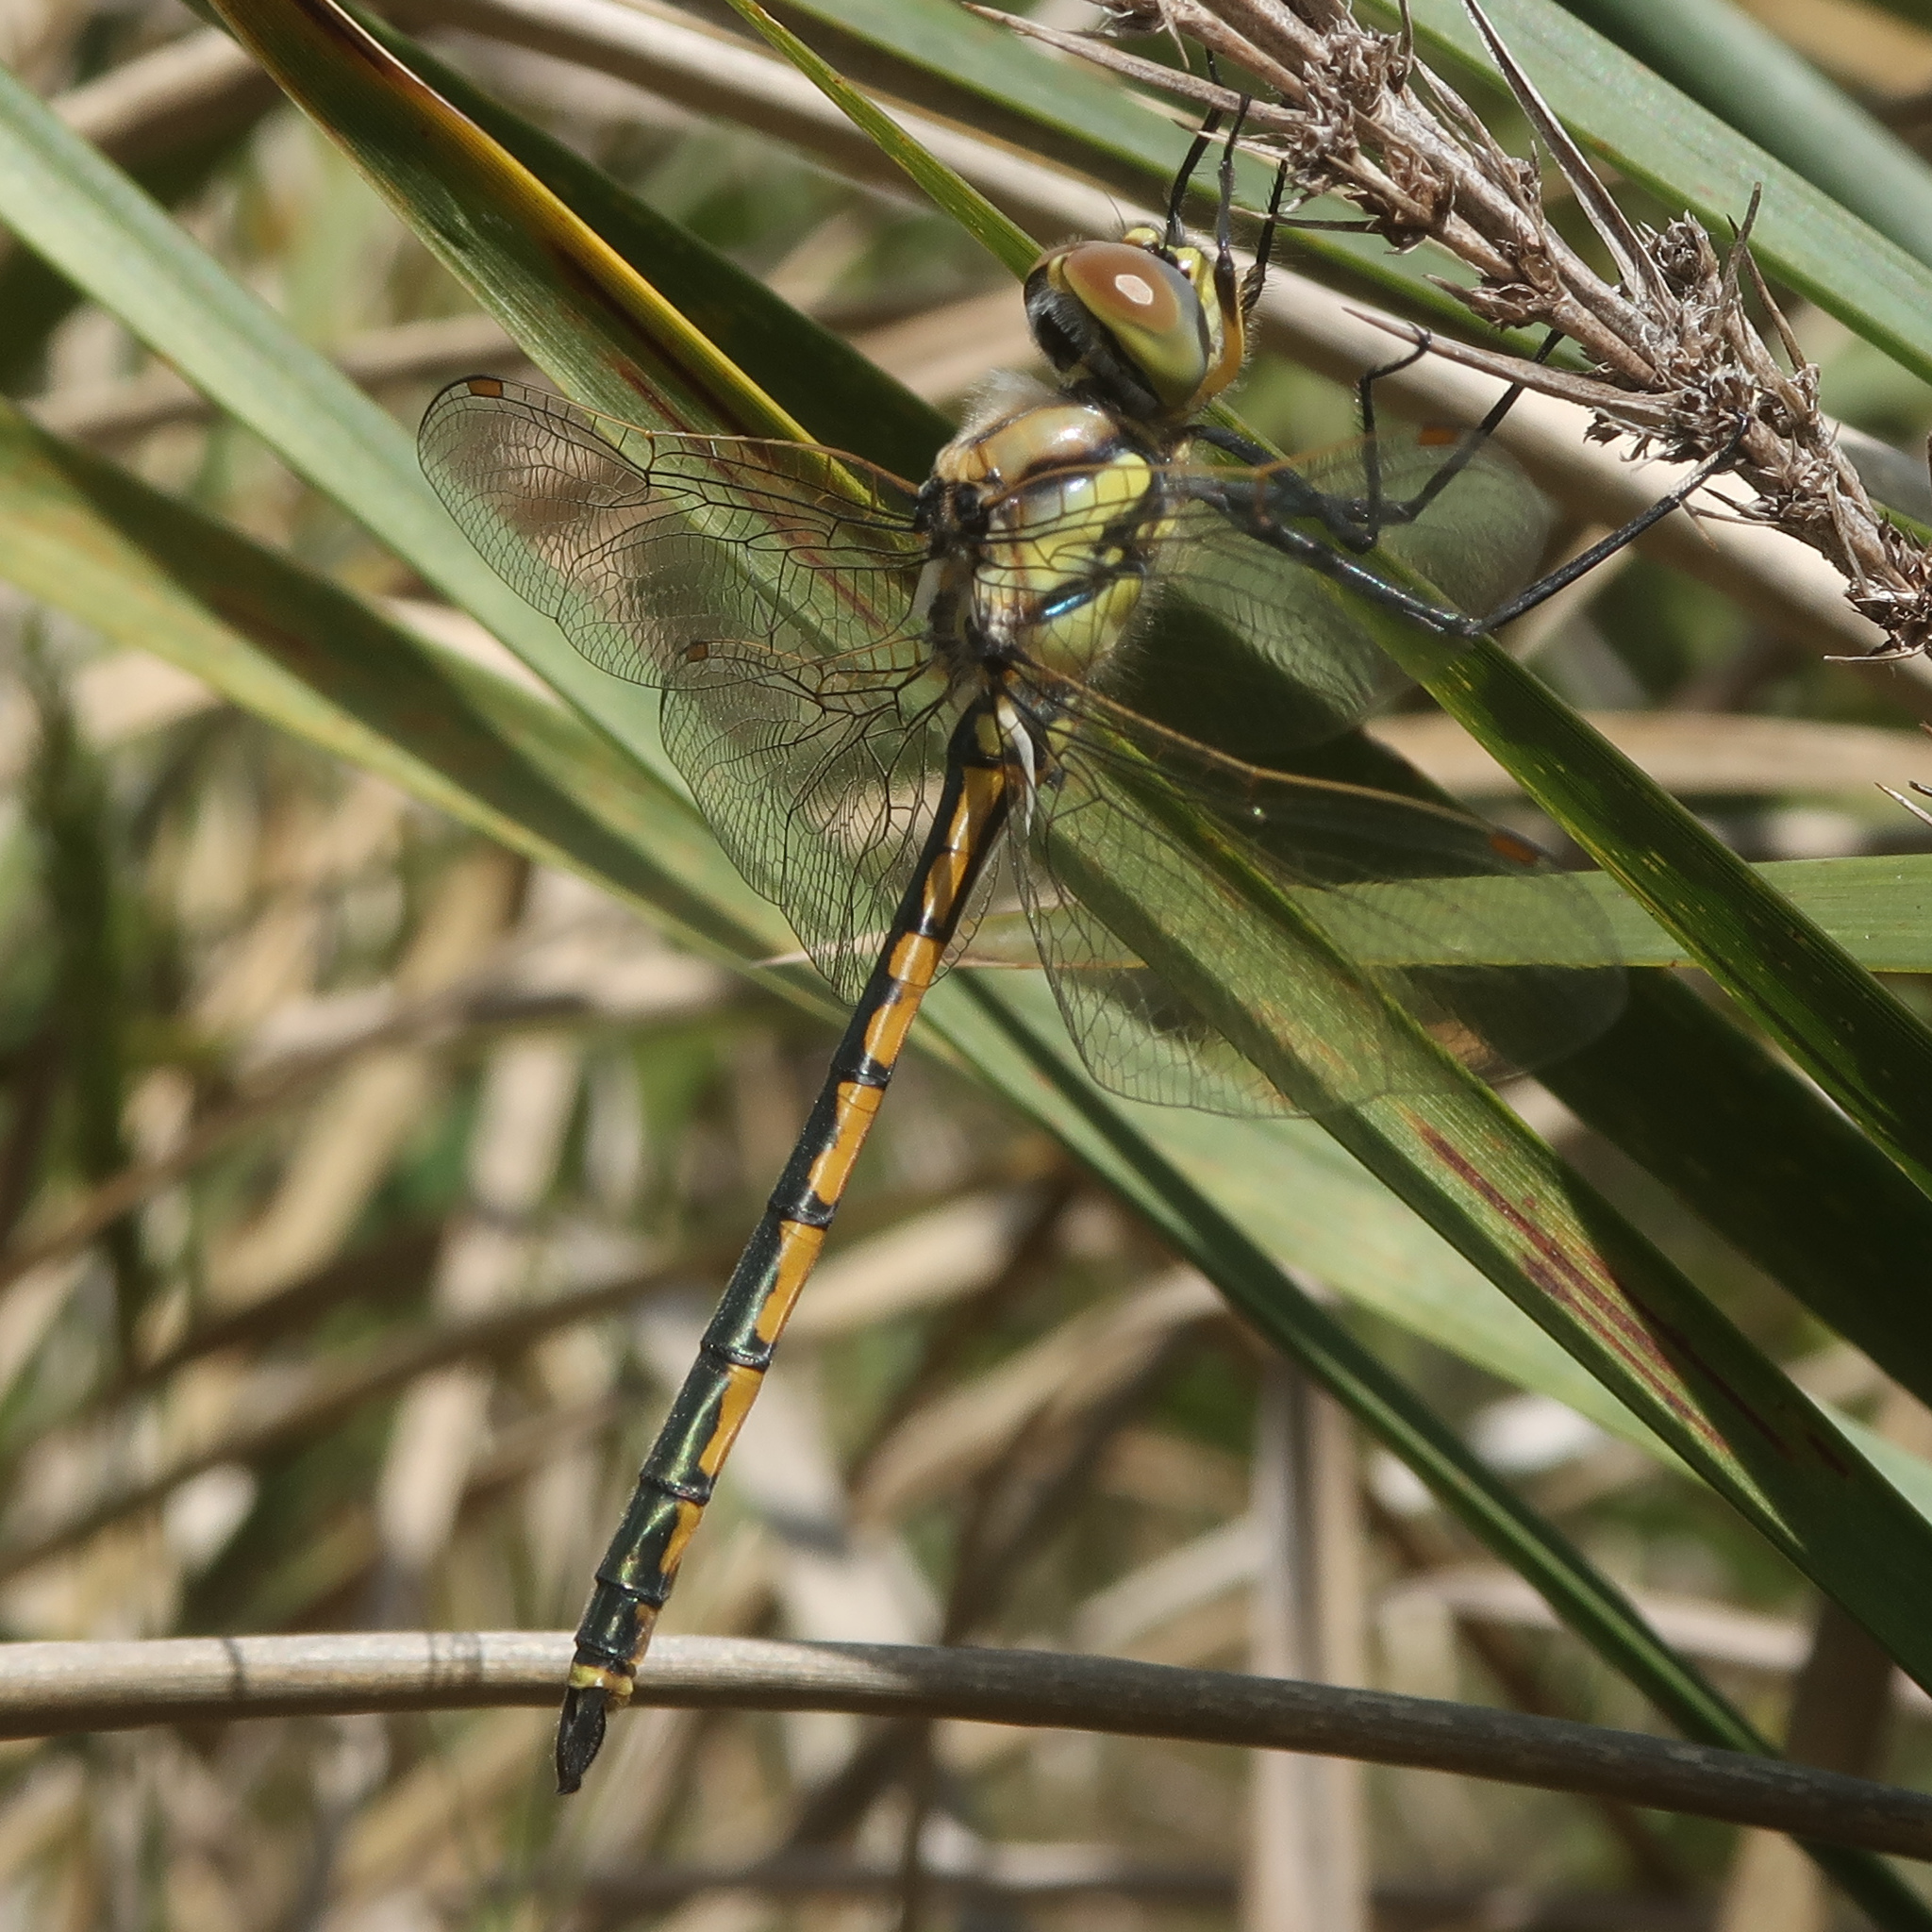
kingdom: Animalia
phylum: Arthropoda
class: Insecta
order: Odonata
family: Corduliidae
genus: Hemicordulia
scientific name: Hemicordulia tau
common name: Tau emerald
